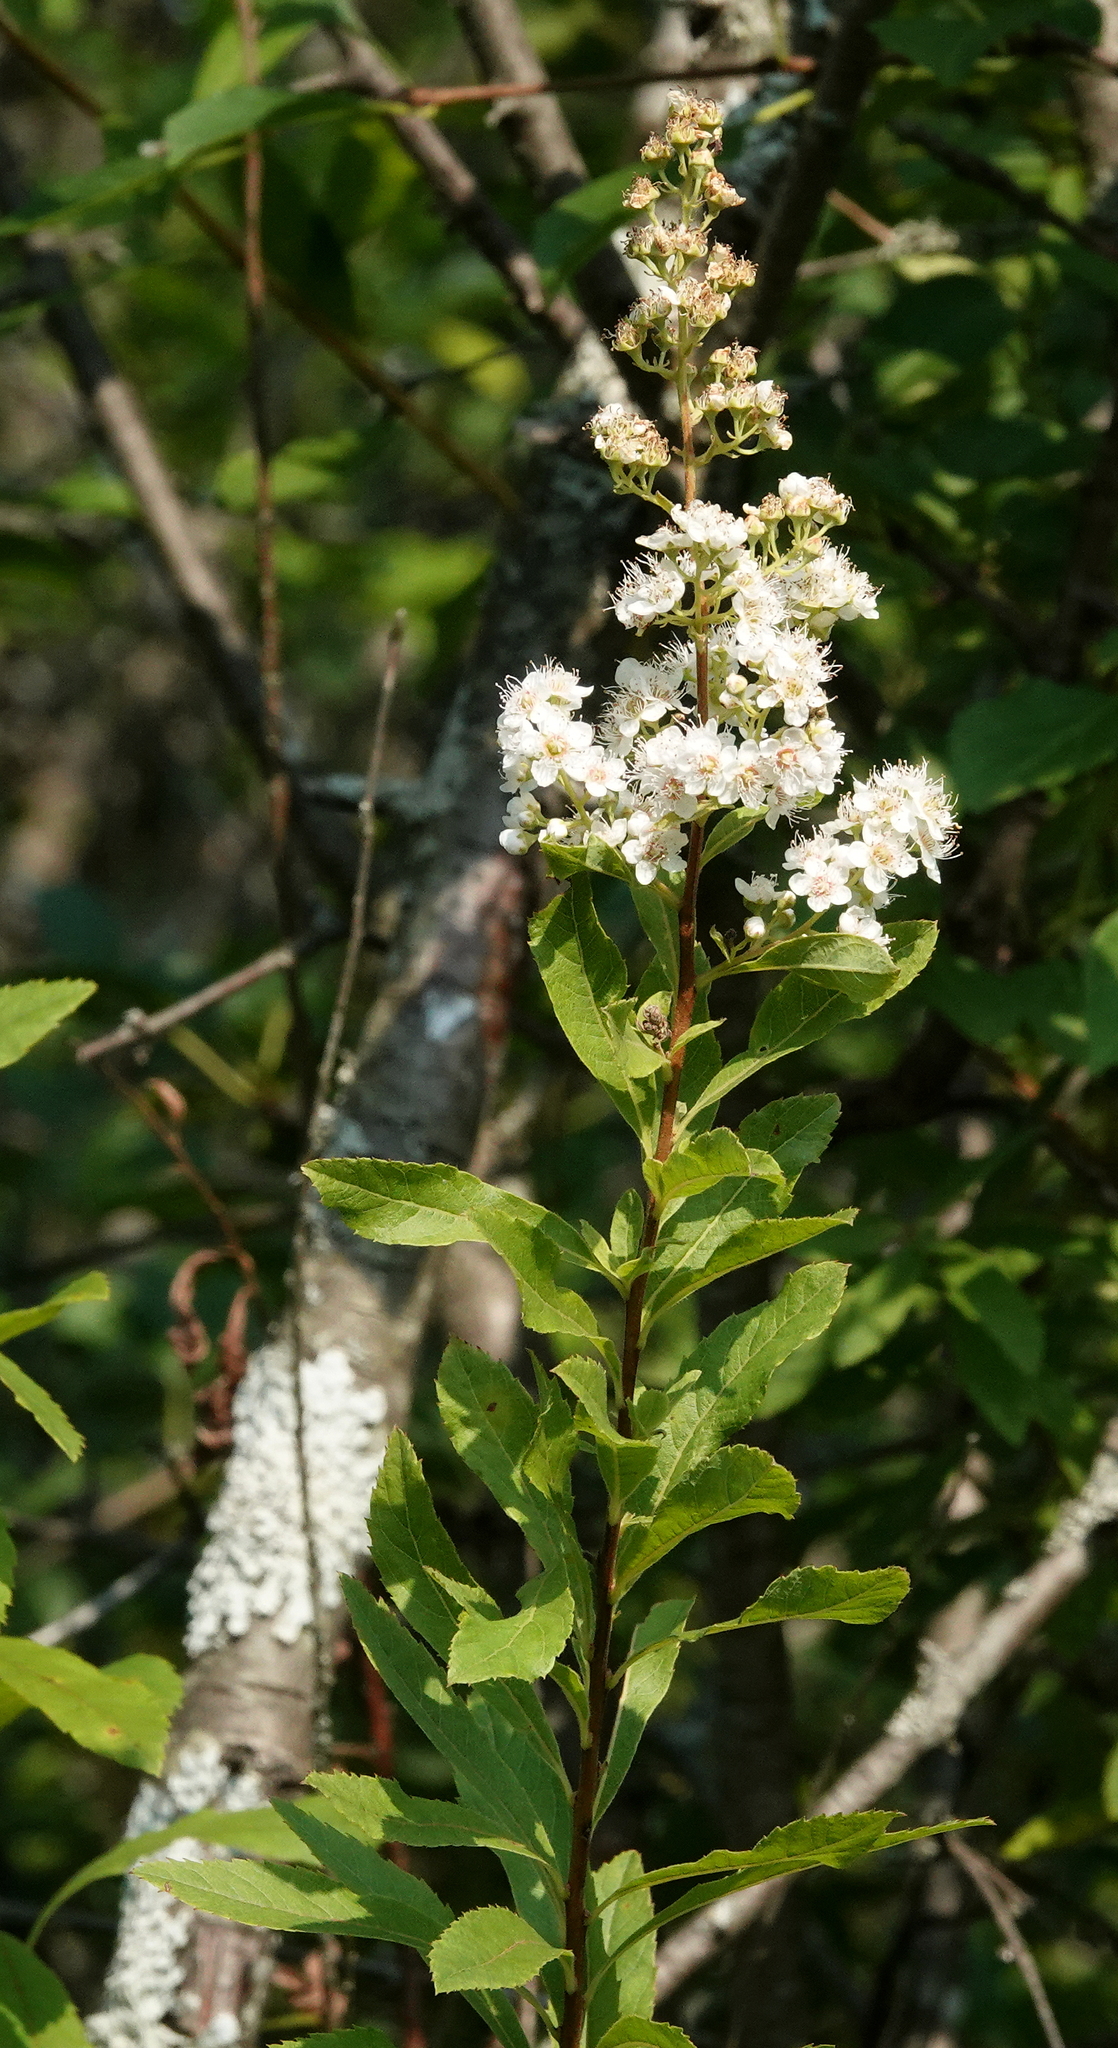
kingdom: Plantae
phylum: Tracheophyta
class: Magnoliopsida
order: Rosales
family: Rosaceae
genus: Spiraea
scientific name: Spiraea alba
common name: Pale bridewort
